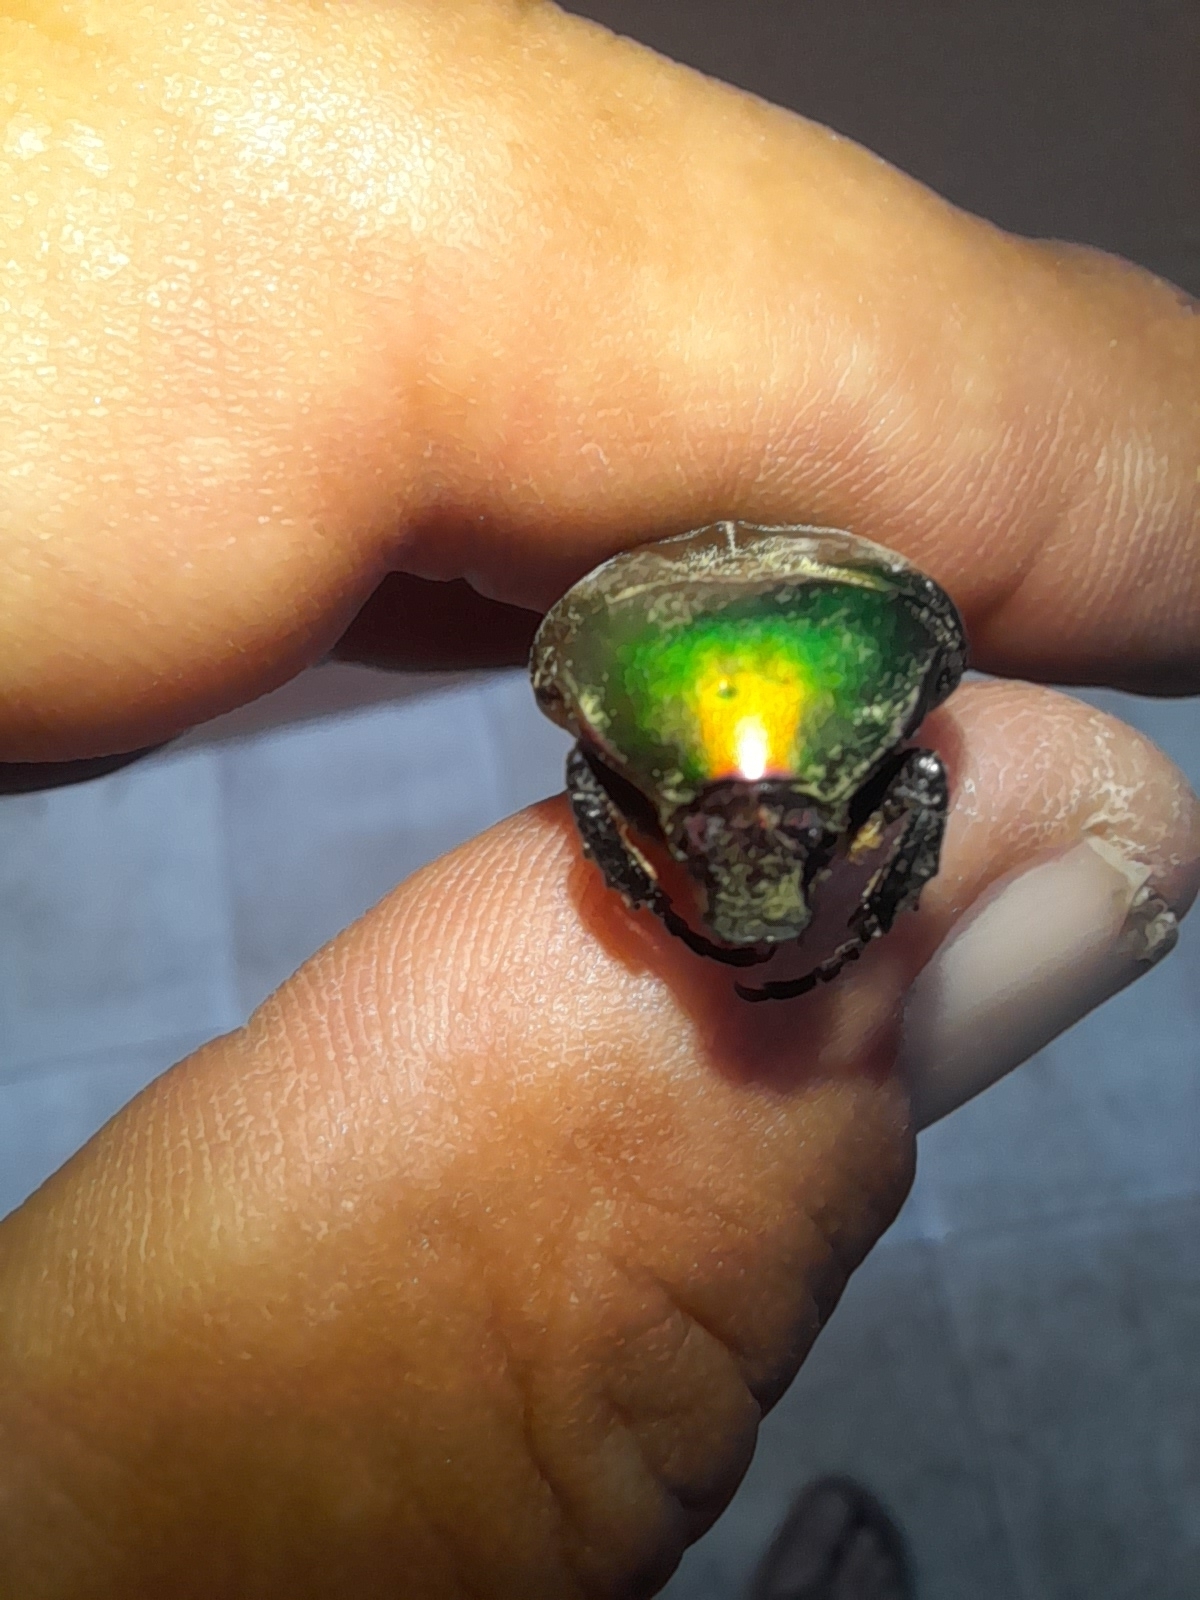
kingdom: Animalia
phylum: Arthropoda
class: Insecta
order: Coleoptera
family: Scarabaeidae
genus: Protaetia
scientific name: Protaetia cuprea
